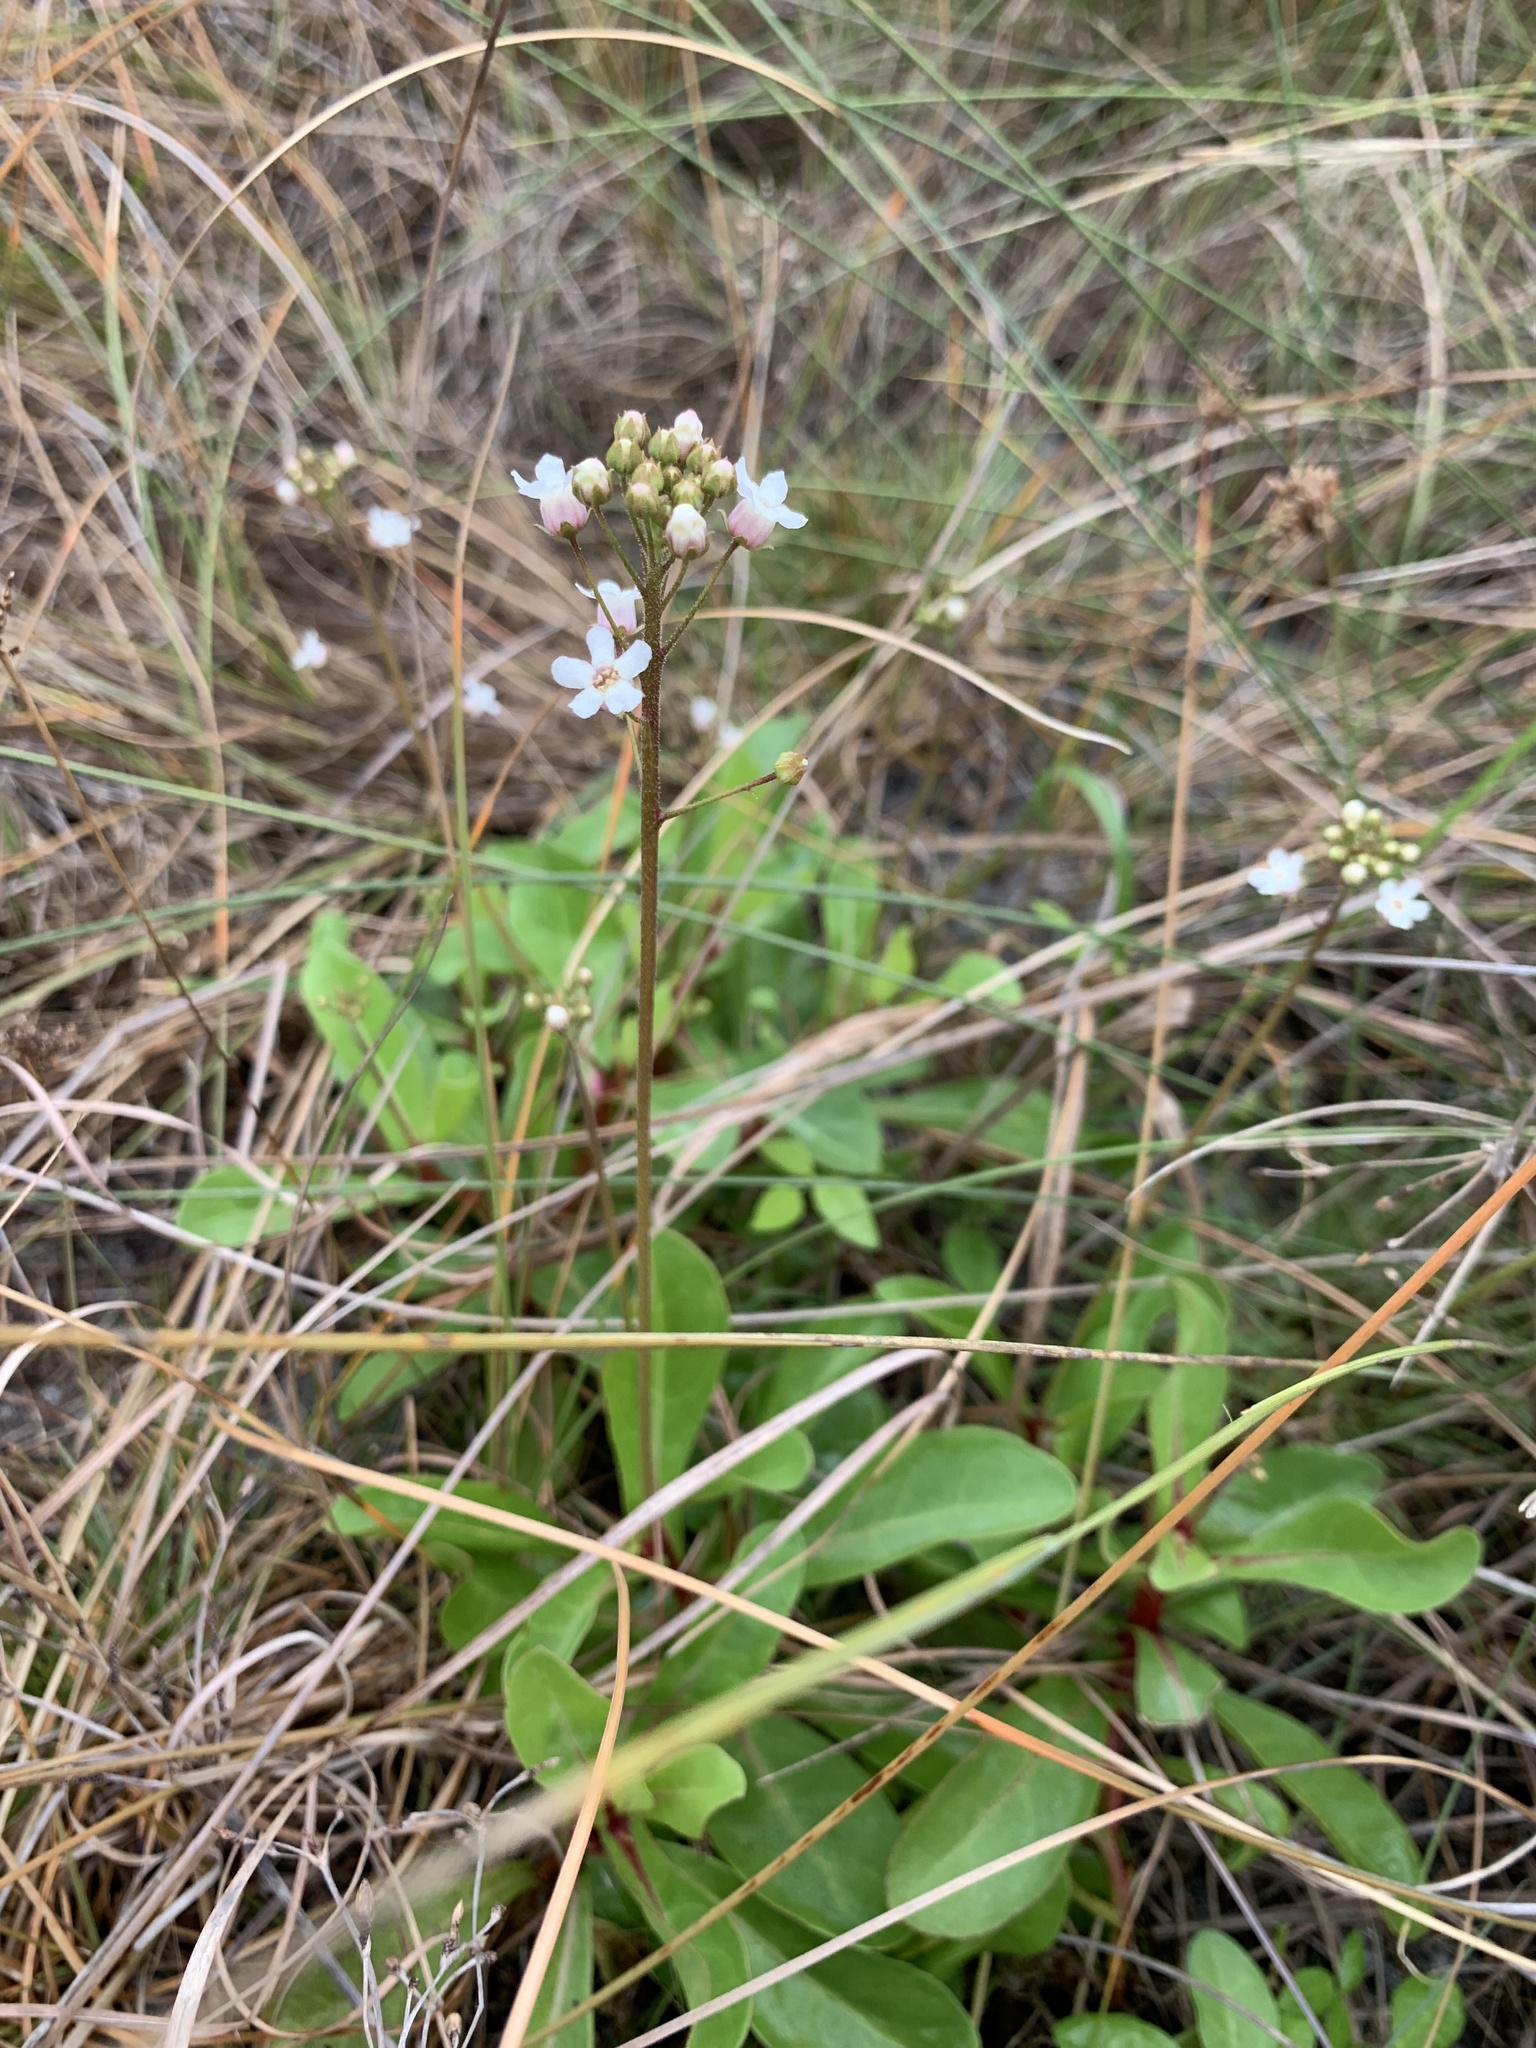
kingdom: Plantae
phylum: Tracheophyta
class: Magnoliopsida
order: Ericales
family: Primulaceae
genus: Samolus
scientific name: Samolus parviflorus
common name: False water pimpernel
